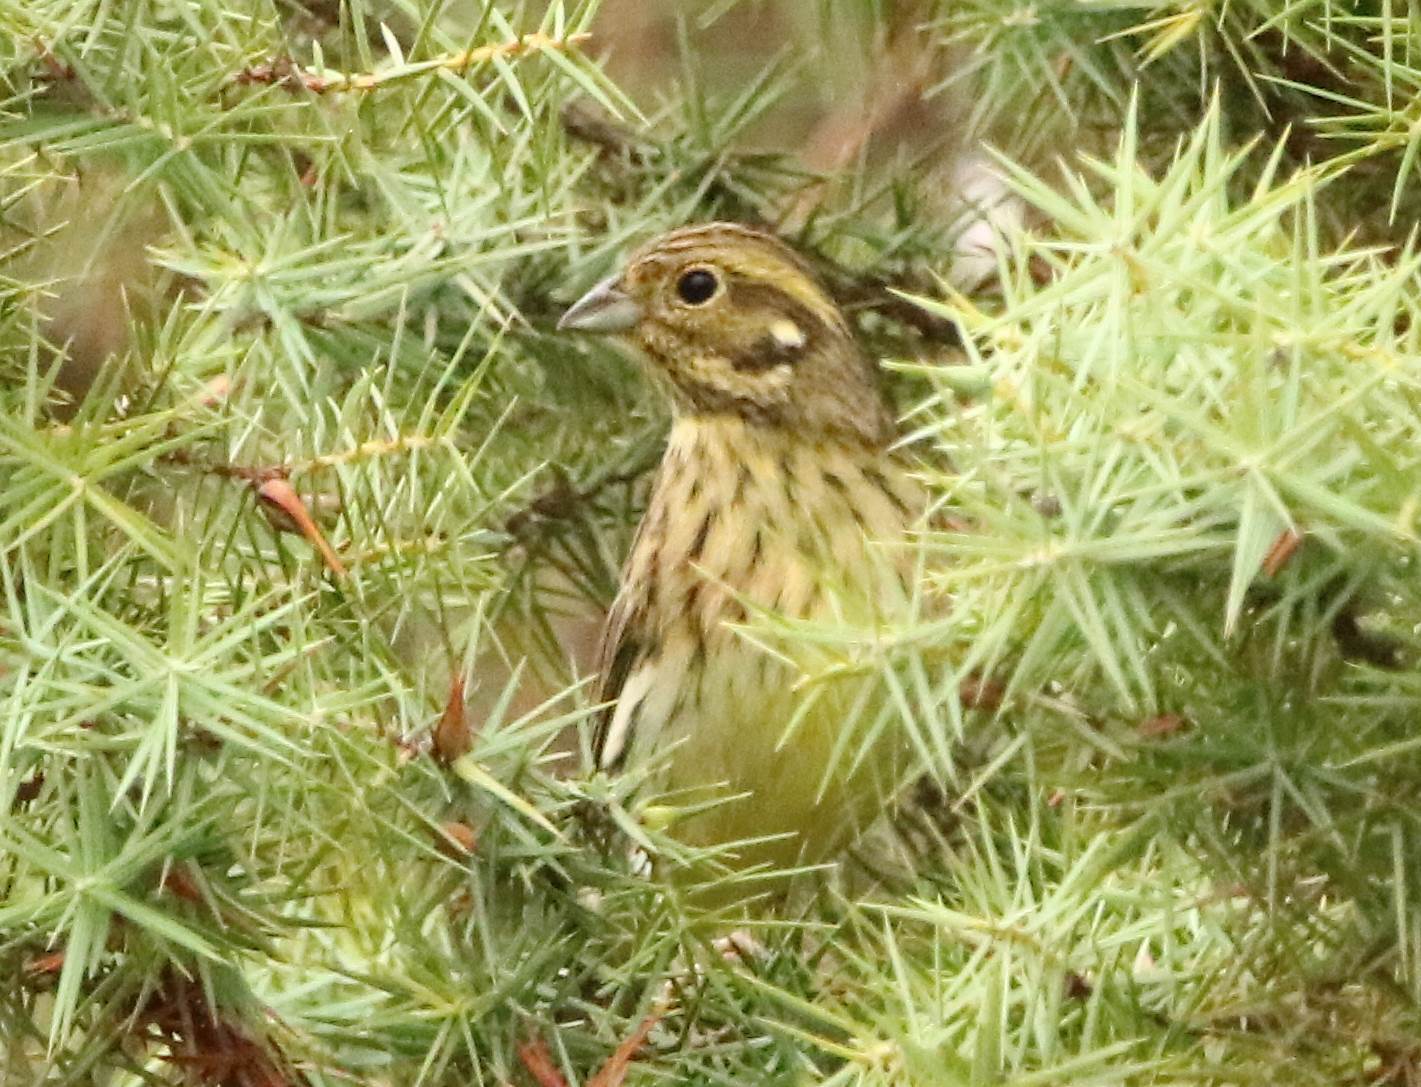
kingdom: Animalia
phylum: Chordata
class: Aves
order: Passeriformes
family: Emberizidae
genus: Emberiza
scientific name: Emberiza cirlus
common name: Cirl bunting
